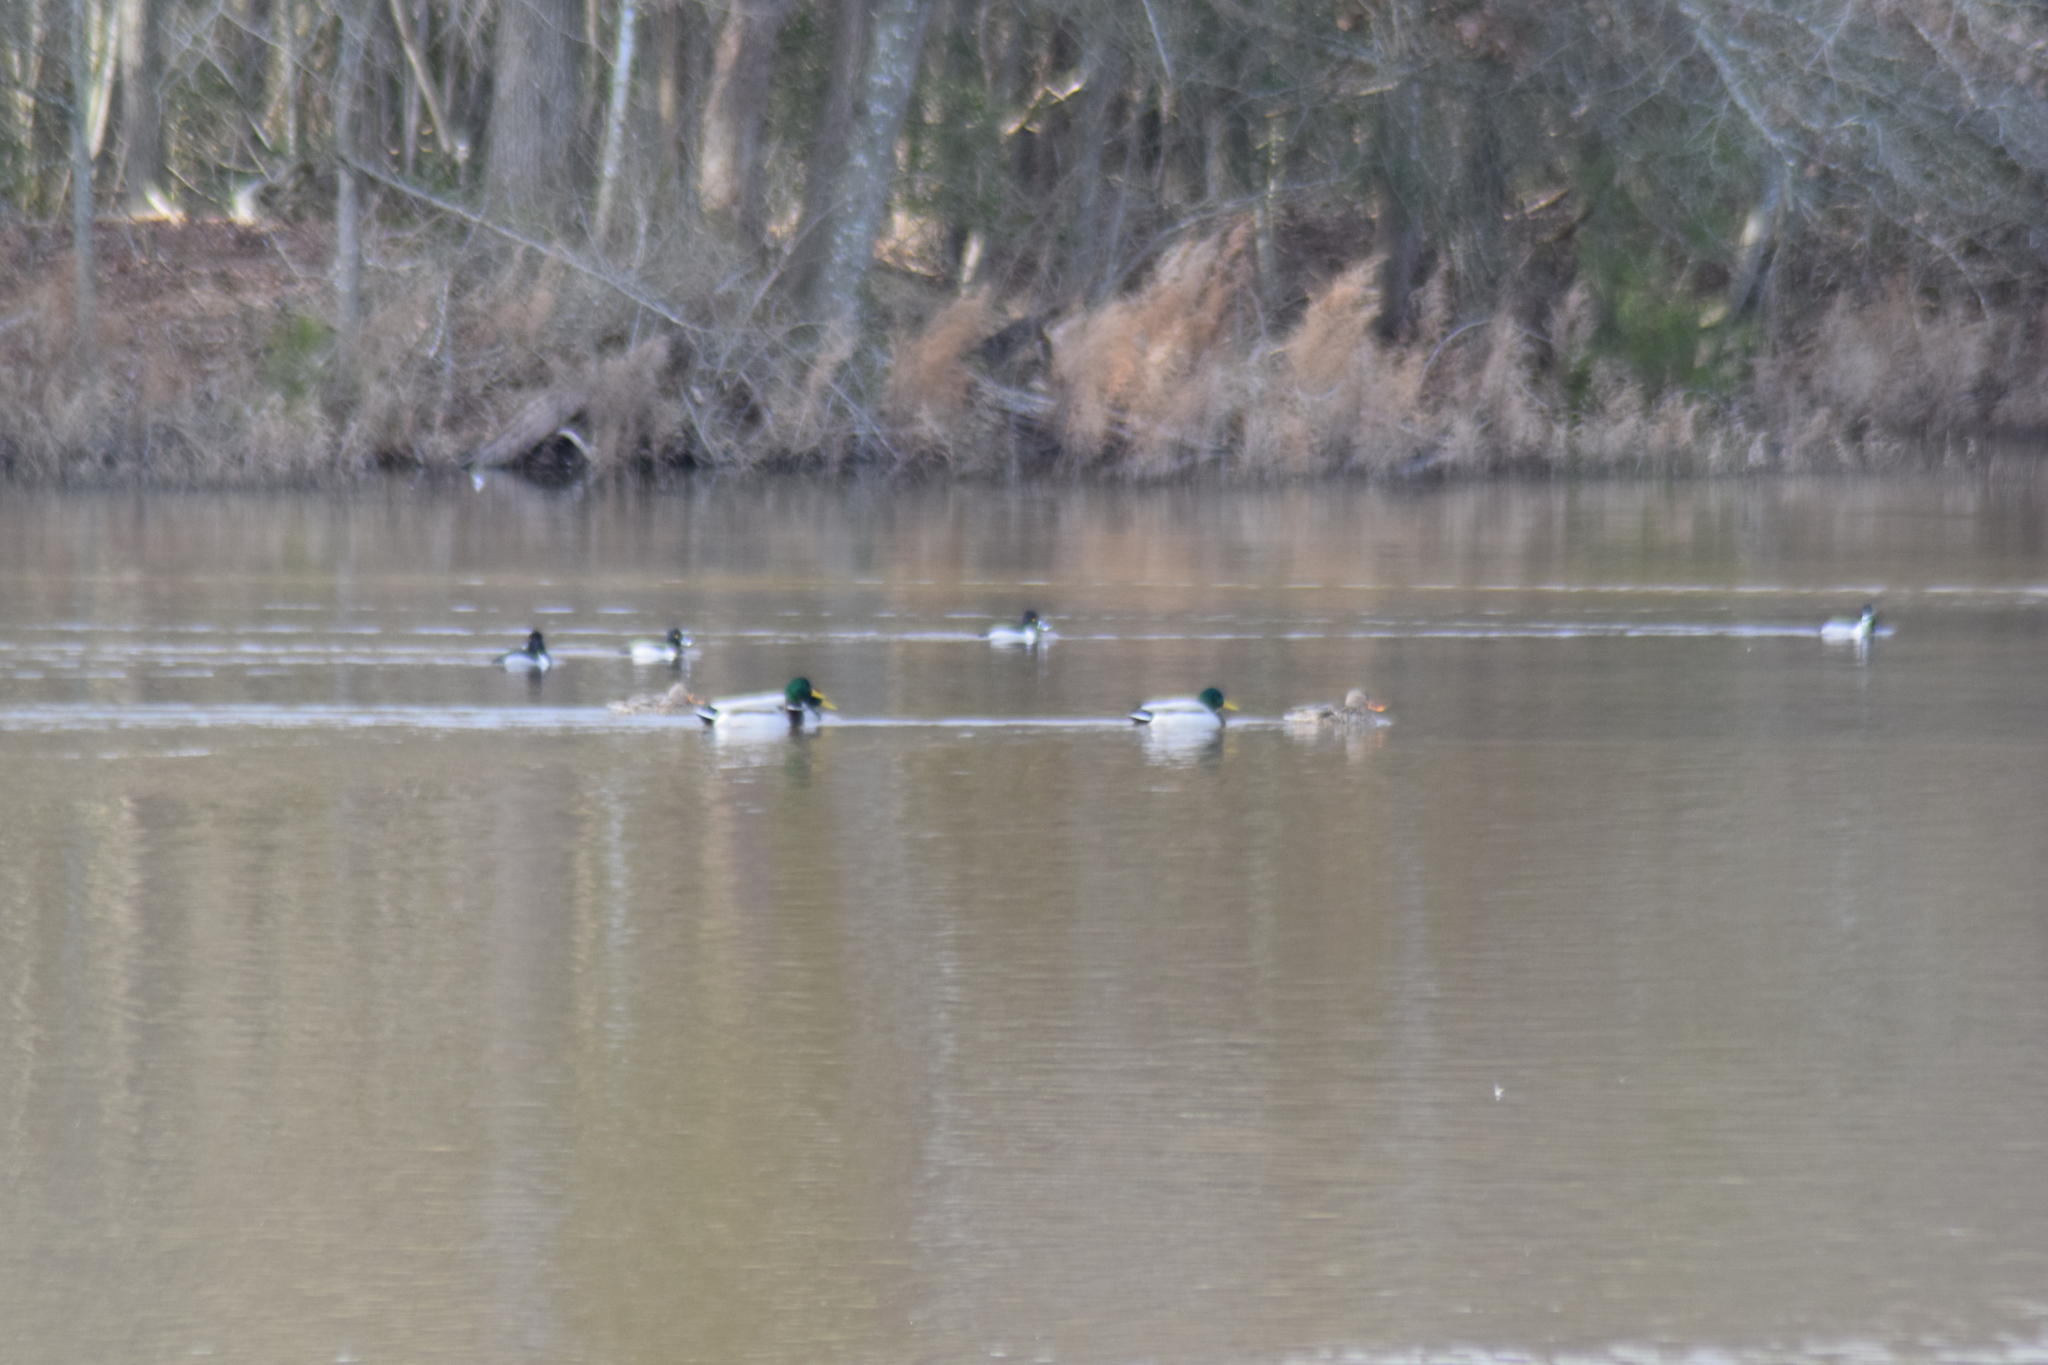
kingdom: Animalia
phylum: Chordata
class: Aves
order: Anseriformes
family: Anatidae
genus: Anas
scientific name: Anas platyrhynchos
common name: Mallard
